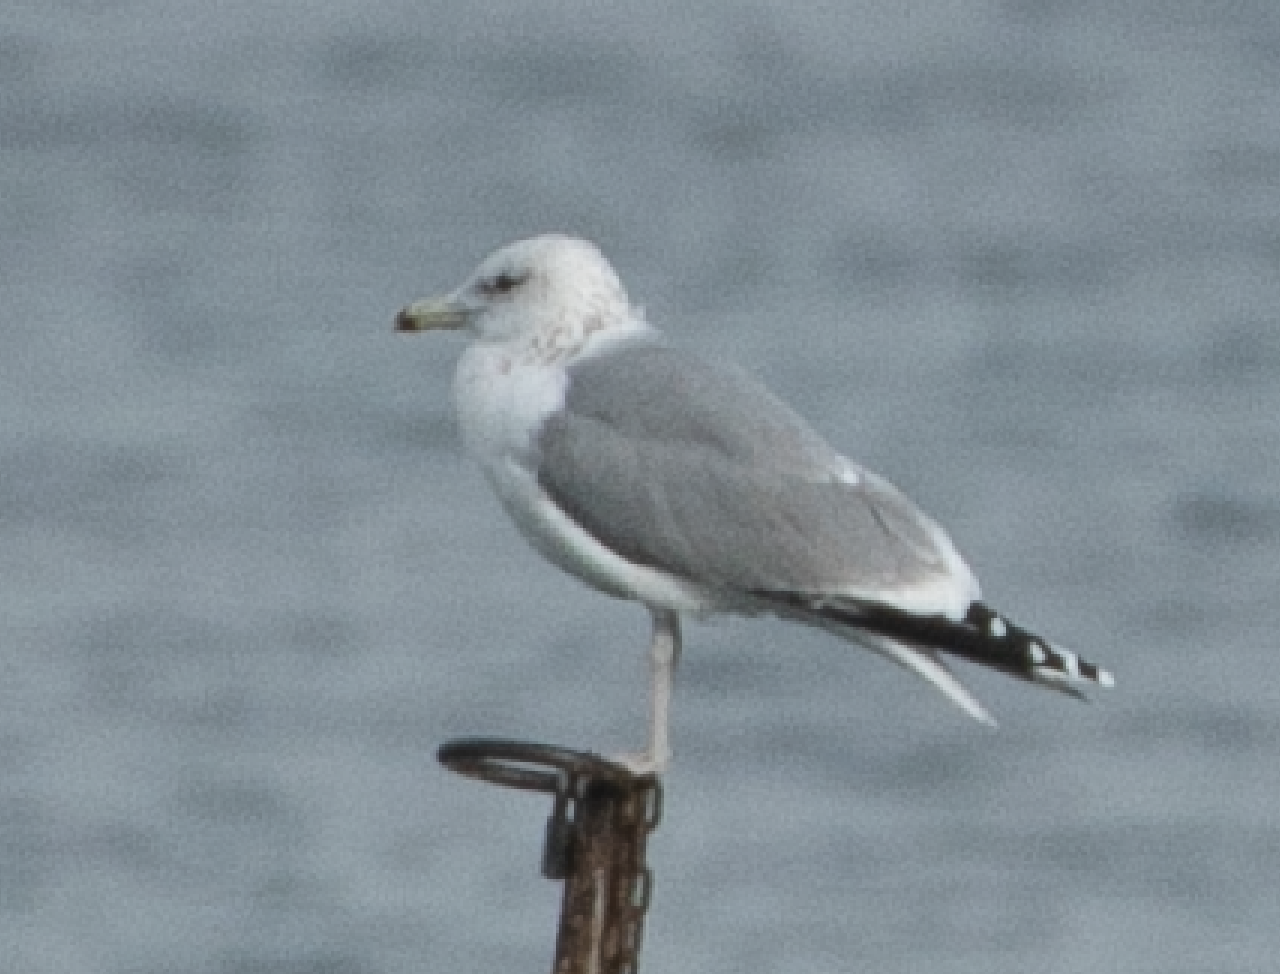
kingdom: Animalia
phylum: Chordata
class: Aves
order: Charadriiformes
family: Laridae
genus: Larus
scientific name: Larus cachinnans
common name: Caspian gull
